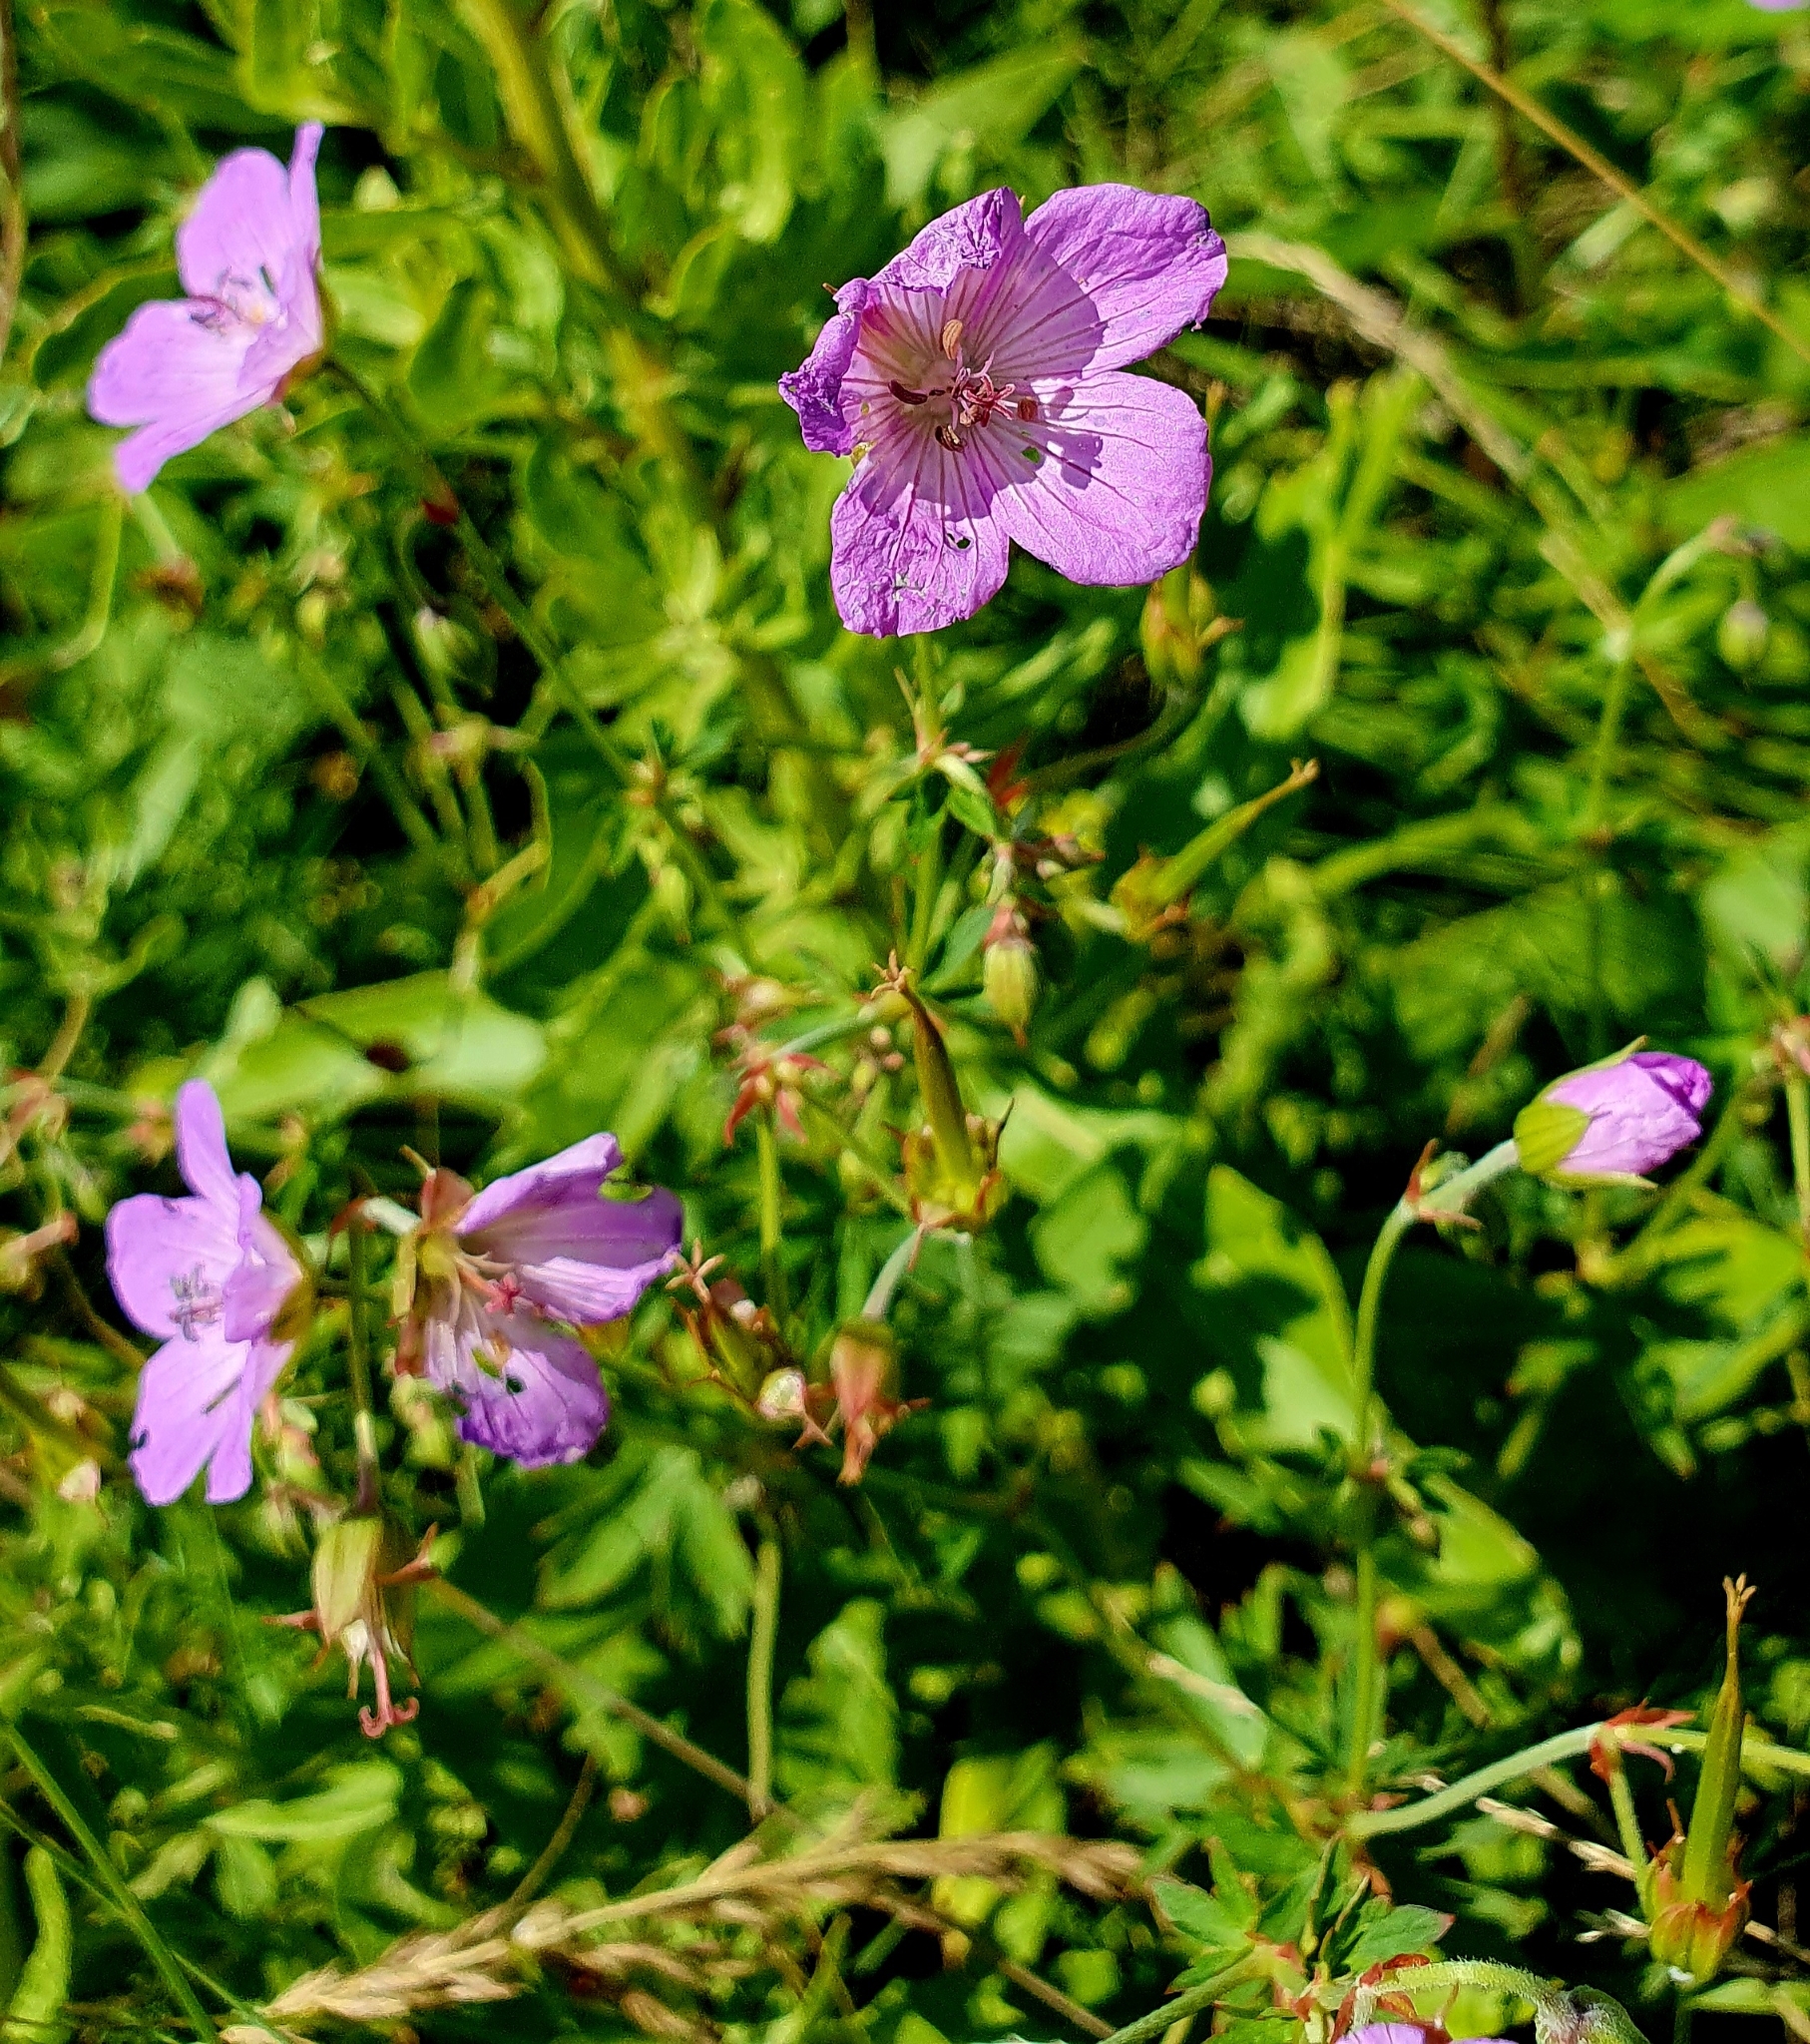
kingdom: Plantae
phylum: Tracheophyta
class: Magnoliopsida
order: Geraniales
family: Geraniaceae
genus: Geranium
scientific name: Geranium collinum
